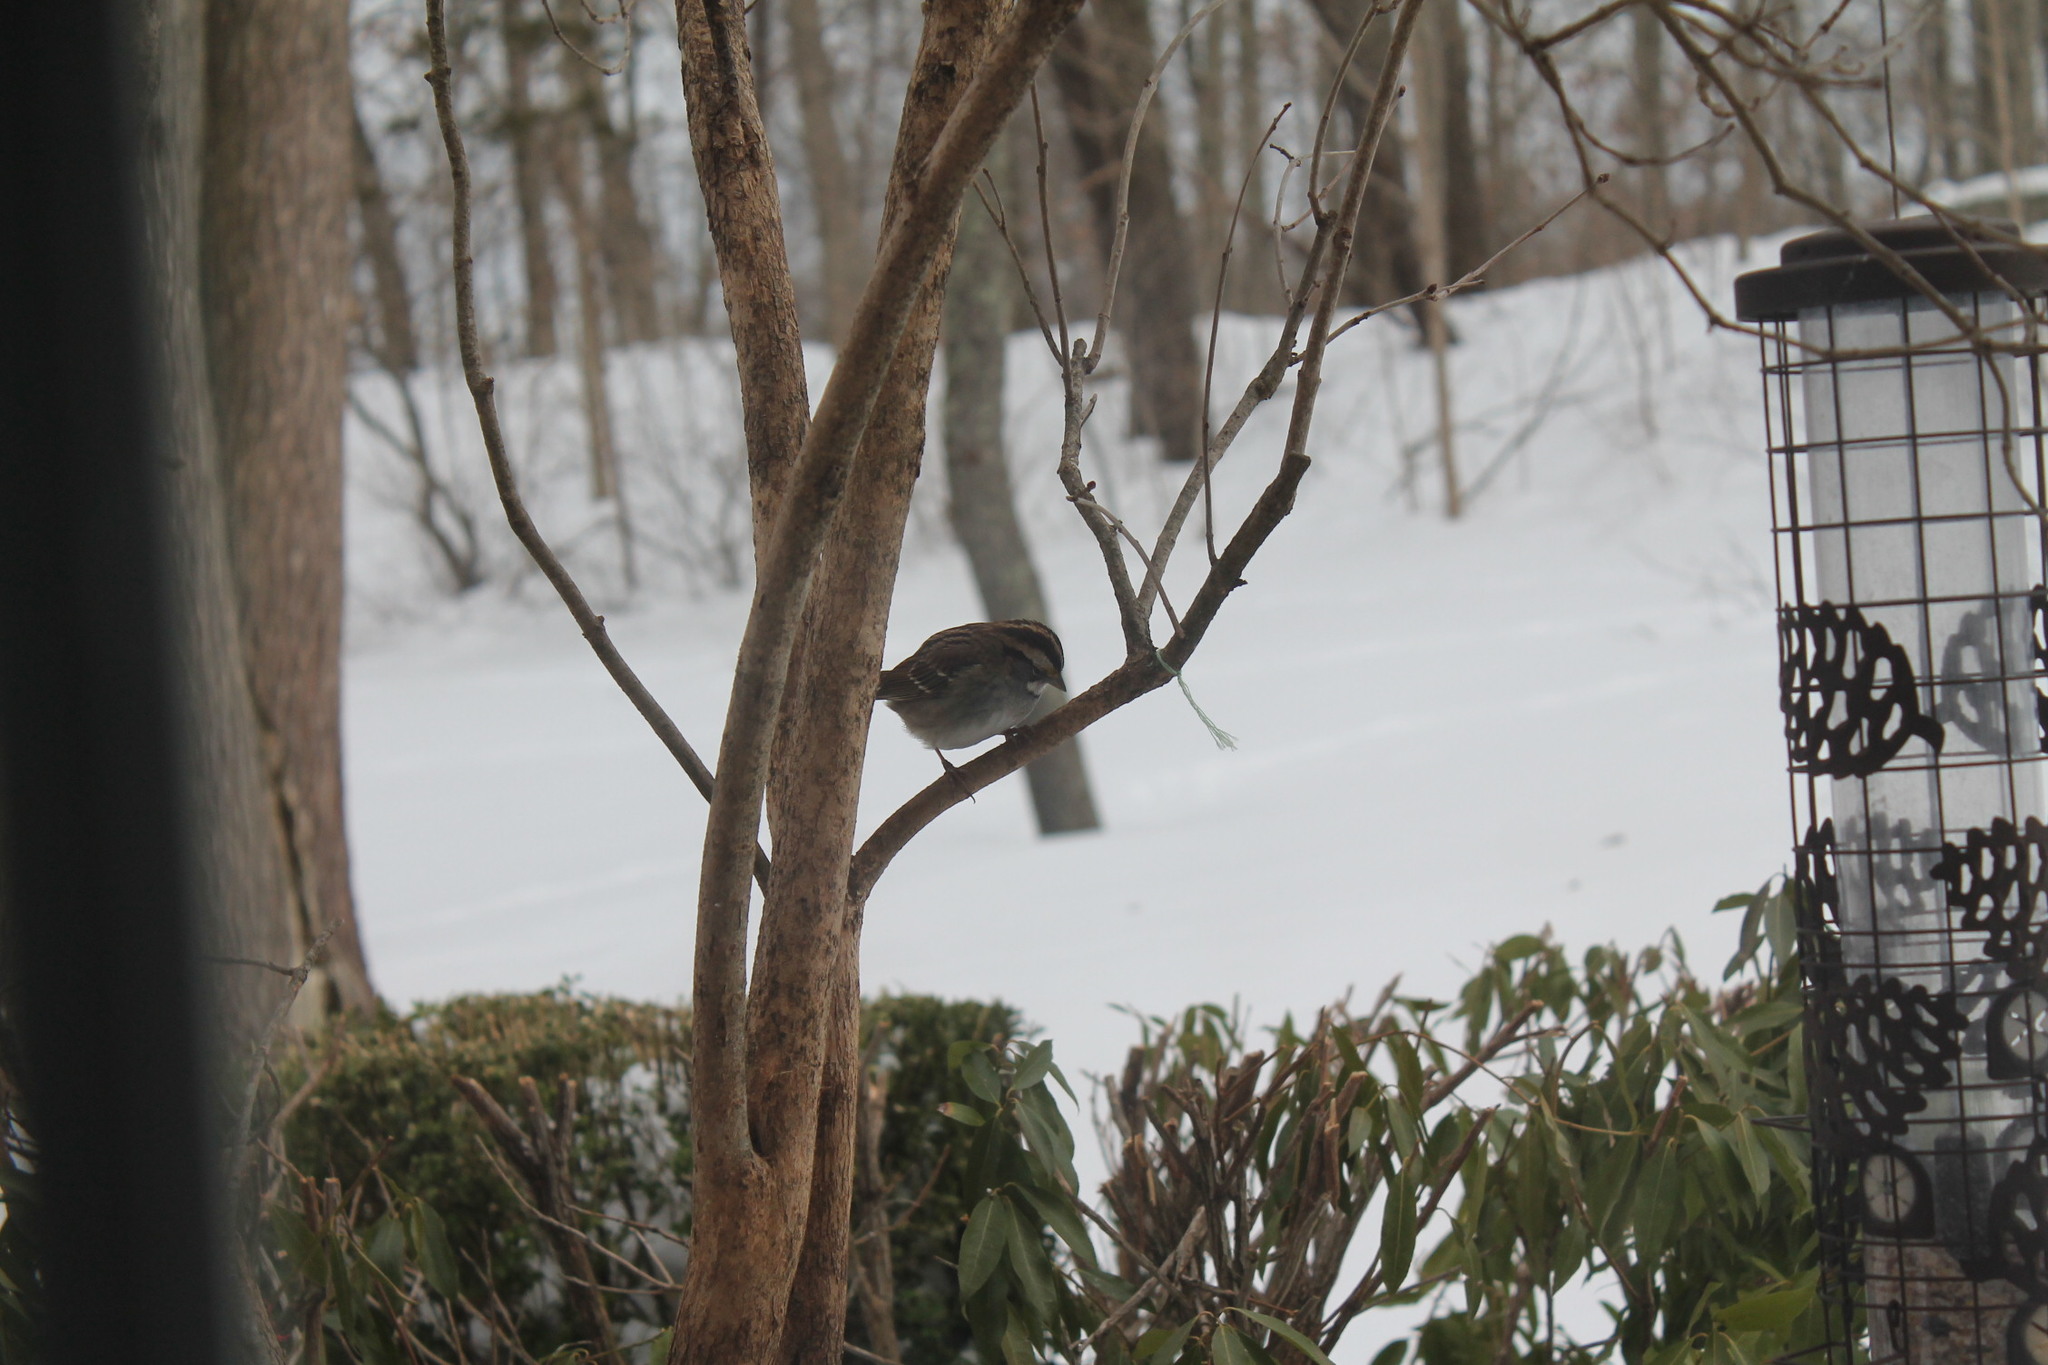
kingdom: Animalia
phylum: Chordata
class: Aves
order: Passeriformes
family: Passerellidae
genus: Zonotrichia
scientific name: Zonotrichia albicollis
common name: White-throated sparrow
